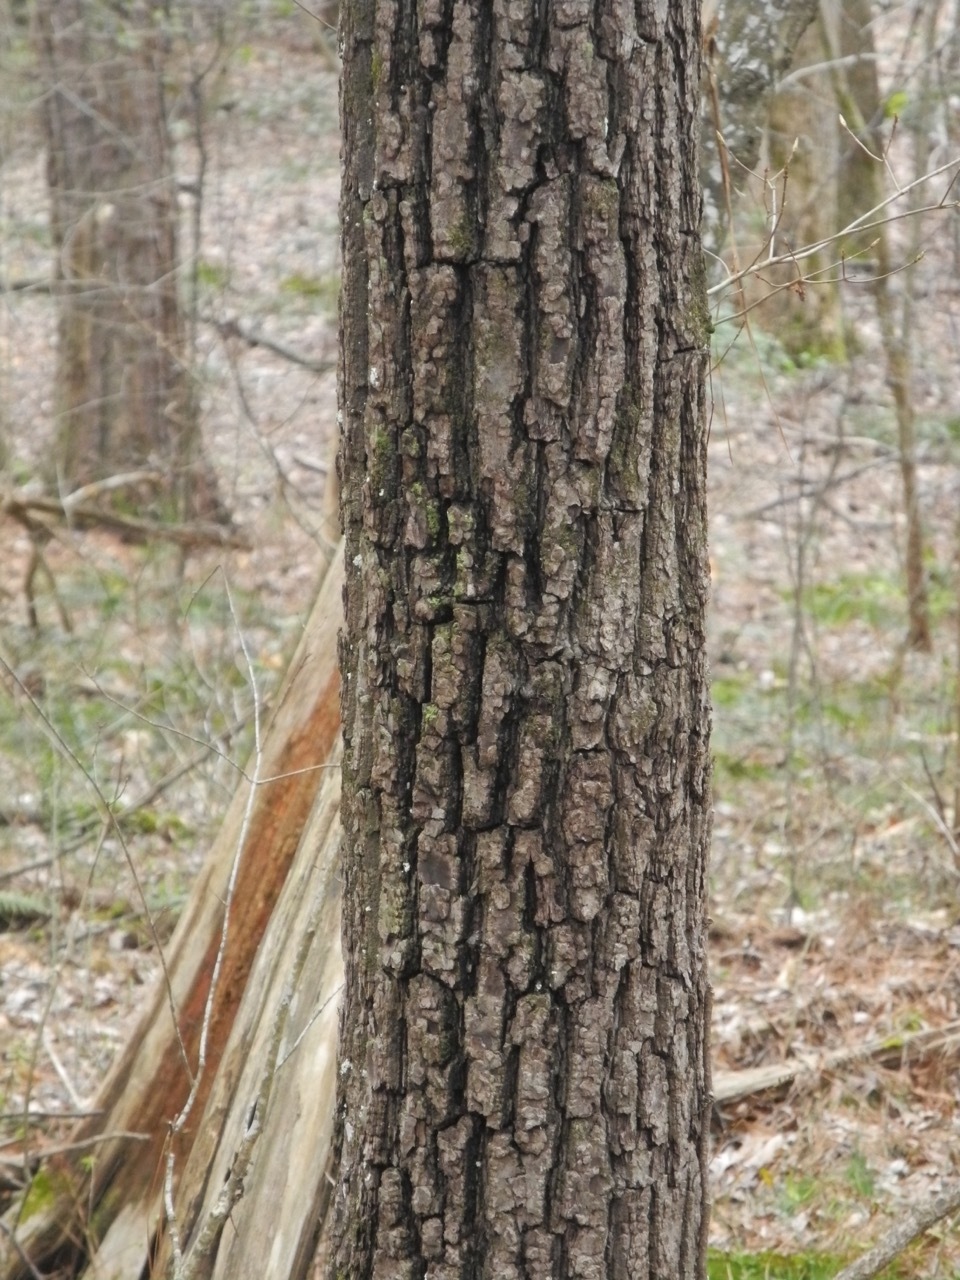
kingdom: Plantae
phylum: Tracheophyta
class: Magnoliopsida
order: Fagales
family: Juglandaceae
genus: Juglans
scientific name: Juglans nigra
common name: Black walnut
